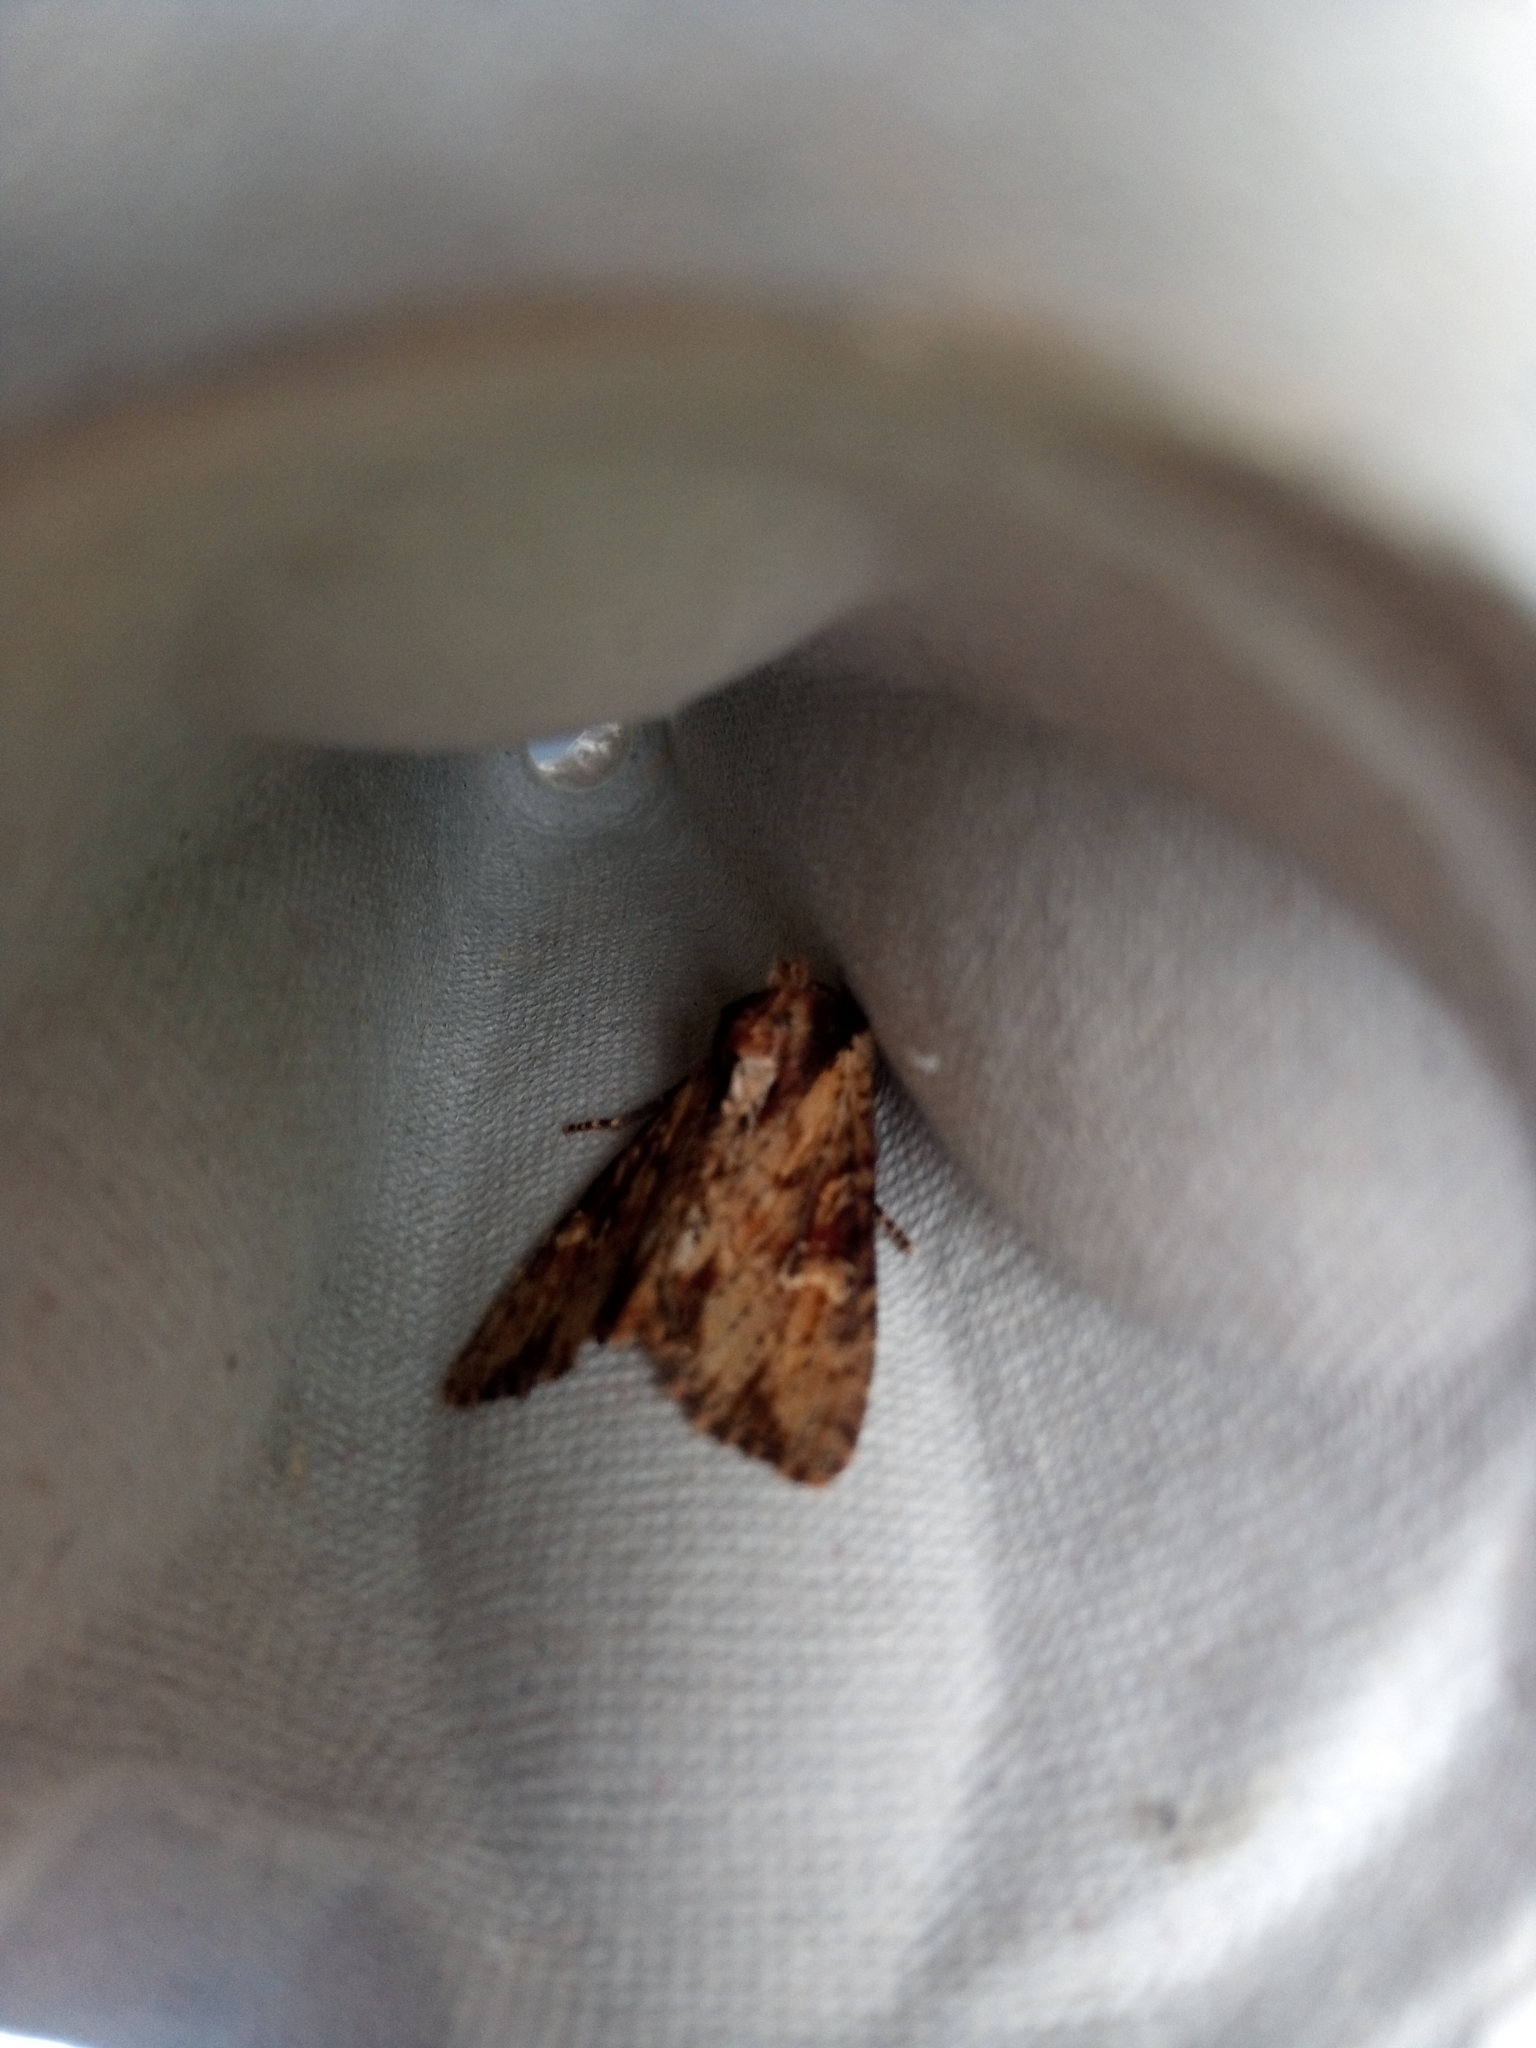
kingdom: Animalia
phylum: Arthropoda
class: Insecta
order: Lepidoptera
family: Noctuidae
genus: Apamea
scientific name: Apamea crenata
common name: Clouded-bordered brindle
